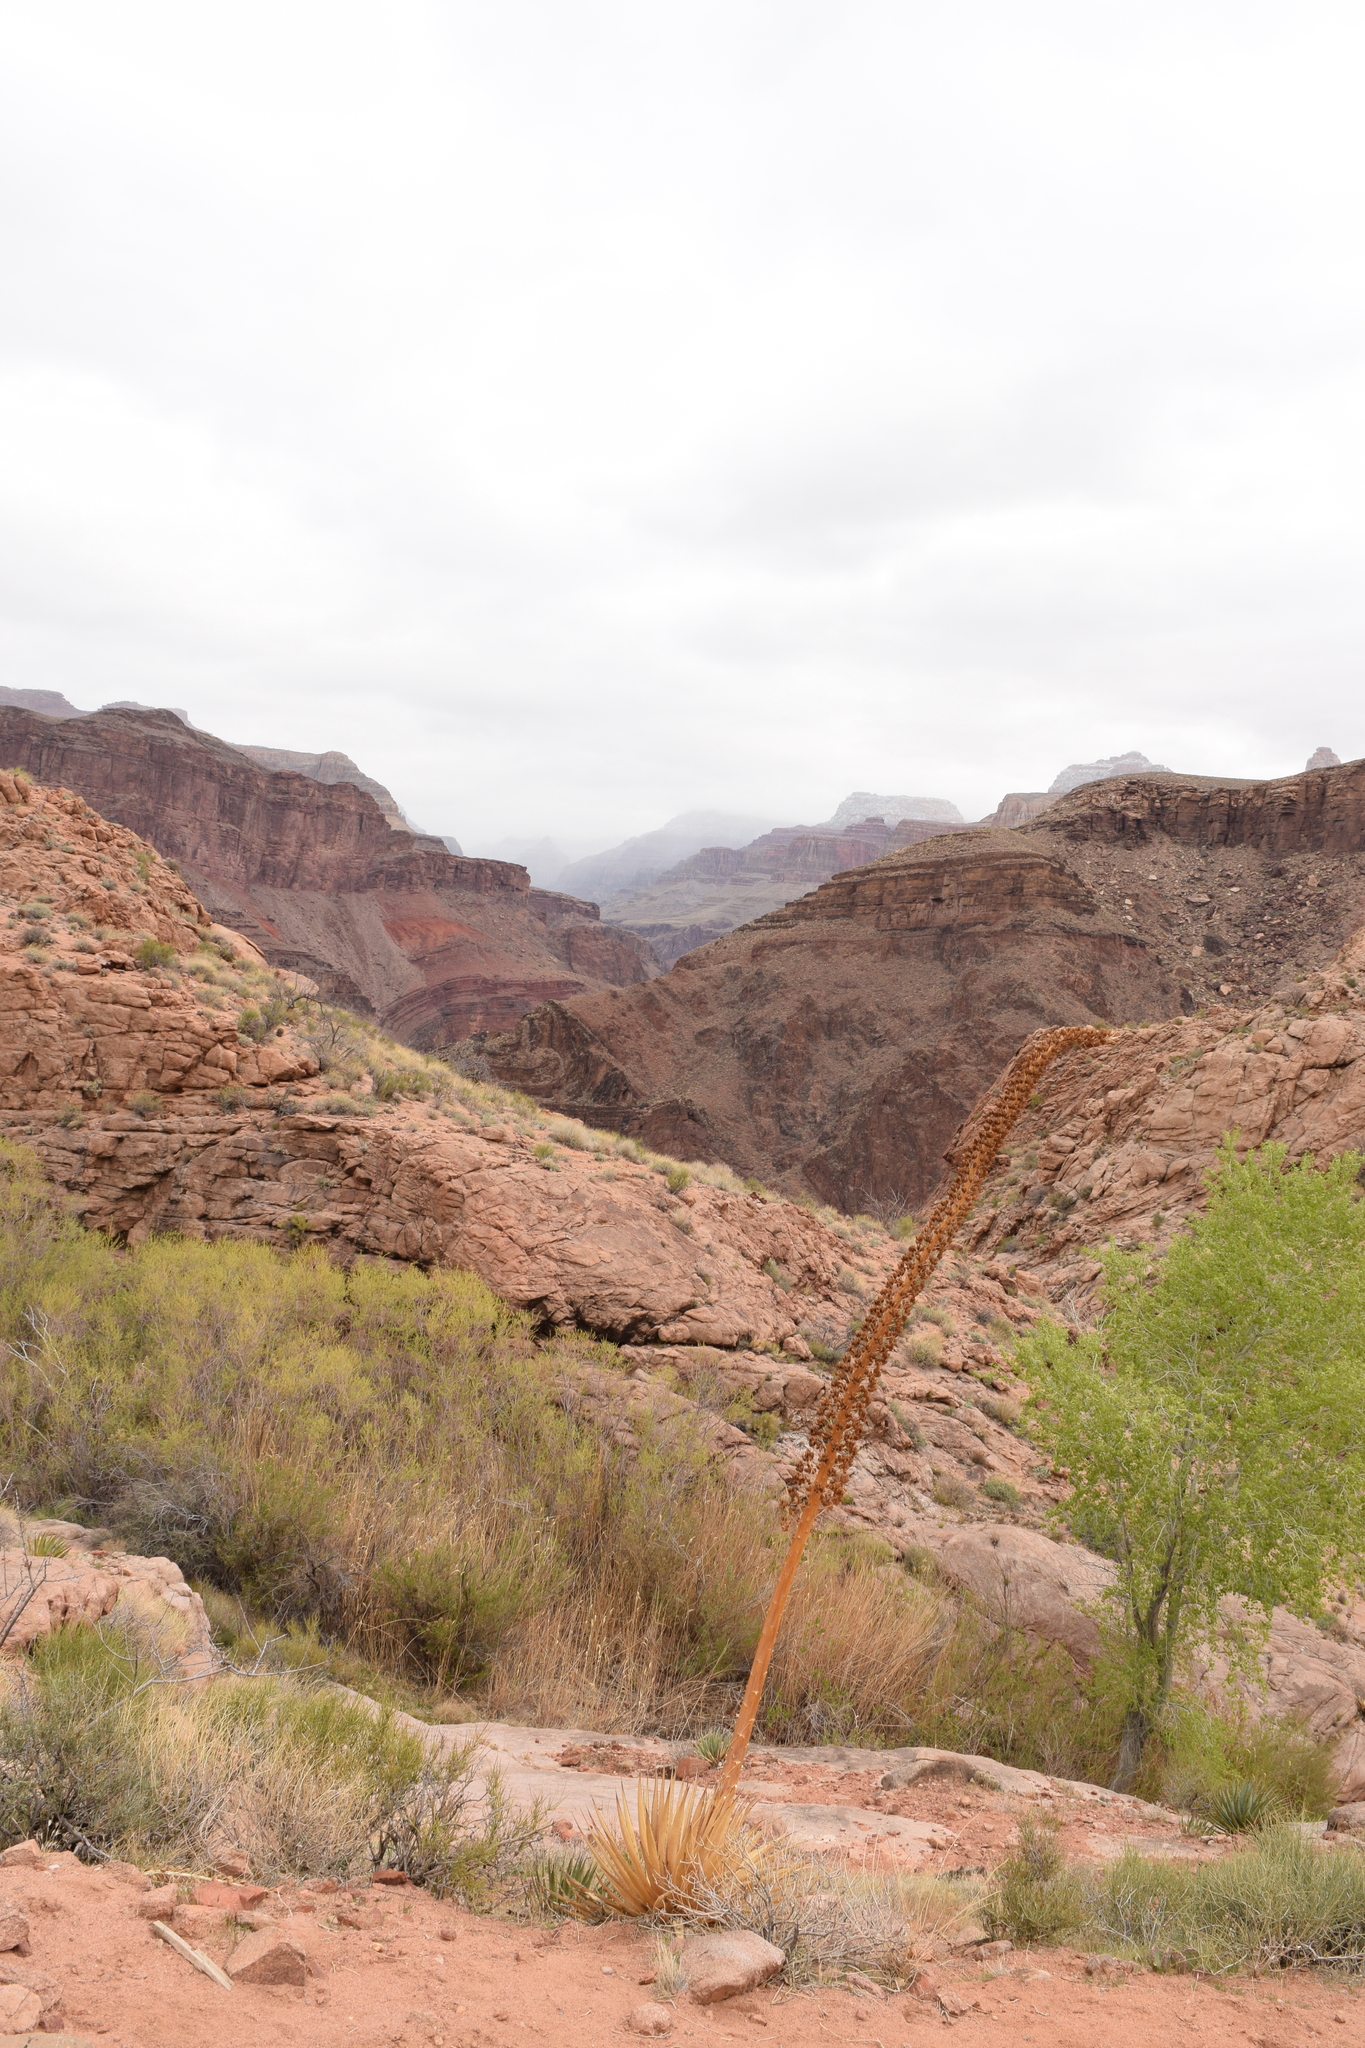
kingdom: Plantae
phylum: Tracheophyta
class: Liliopsida
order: Asparagales
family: Asparagaceae
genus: Agave
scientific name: Agave utahensis
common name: Utah agave
